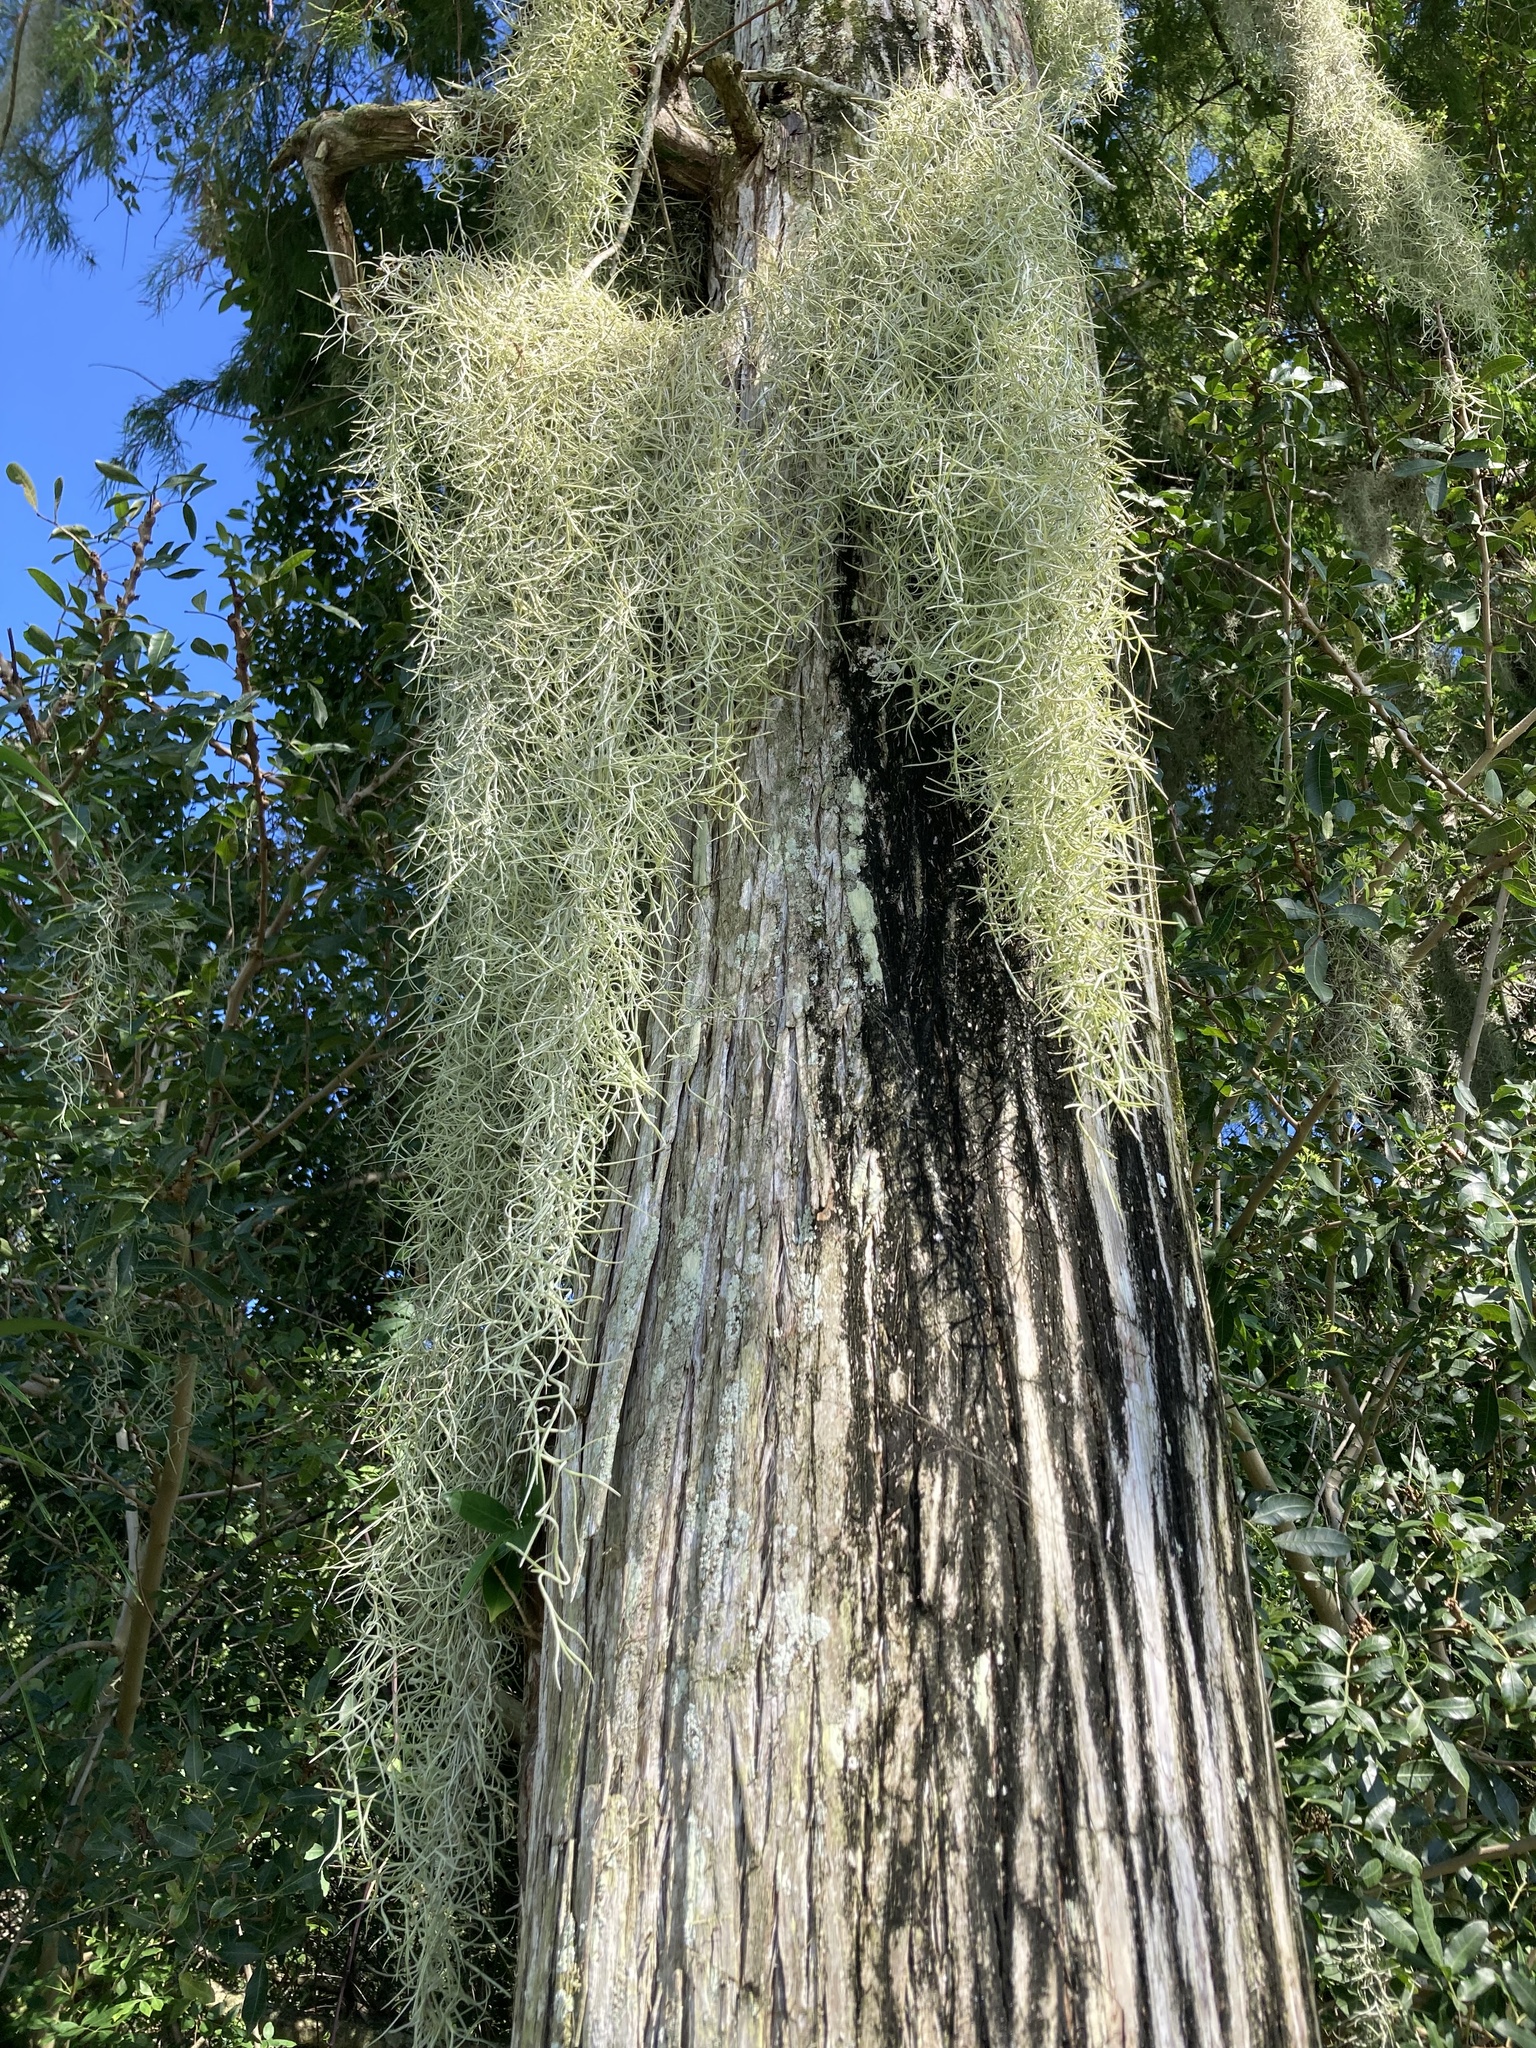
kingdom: Plantae
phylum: Tracheophyta
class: Liliopsida
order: Poales
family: Bromeliaceae
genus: Tillandsia
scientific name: Tillandsia usneoides
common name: Spanish moss
